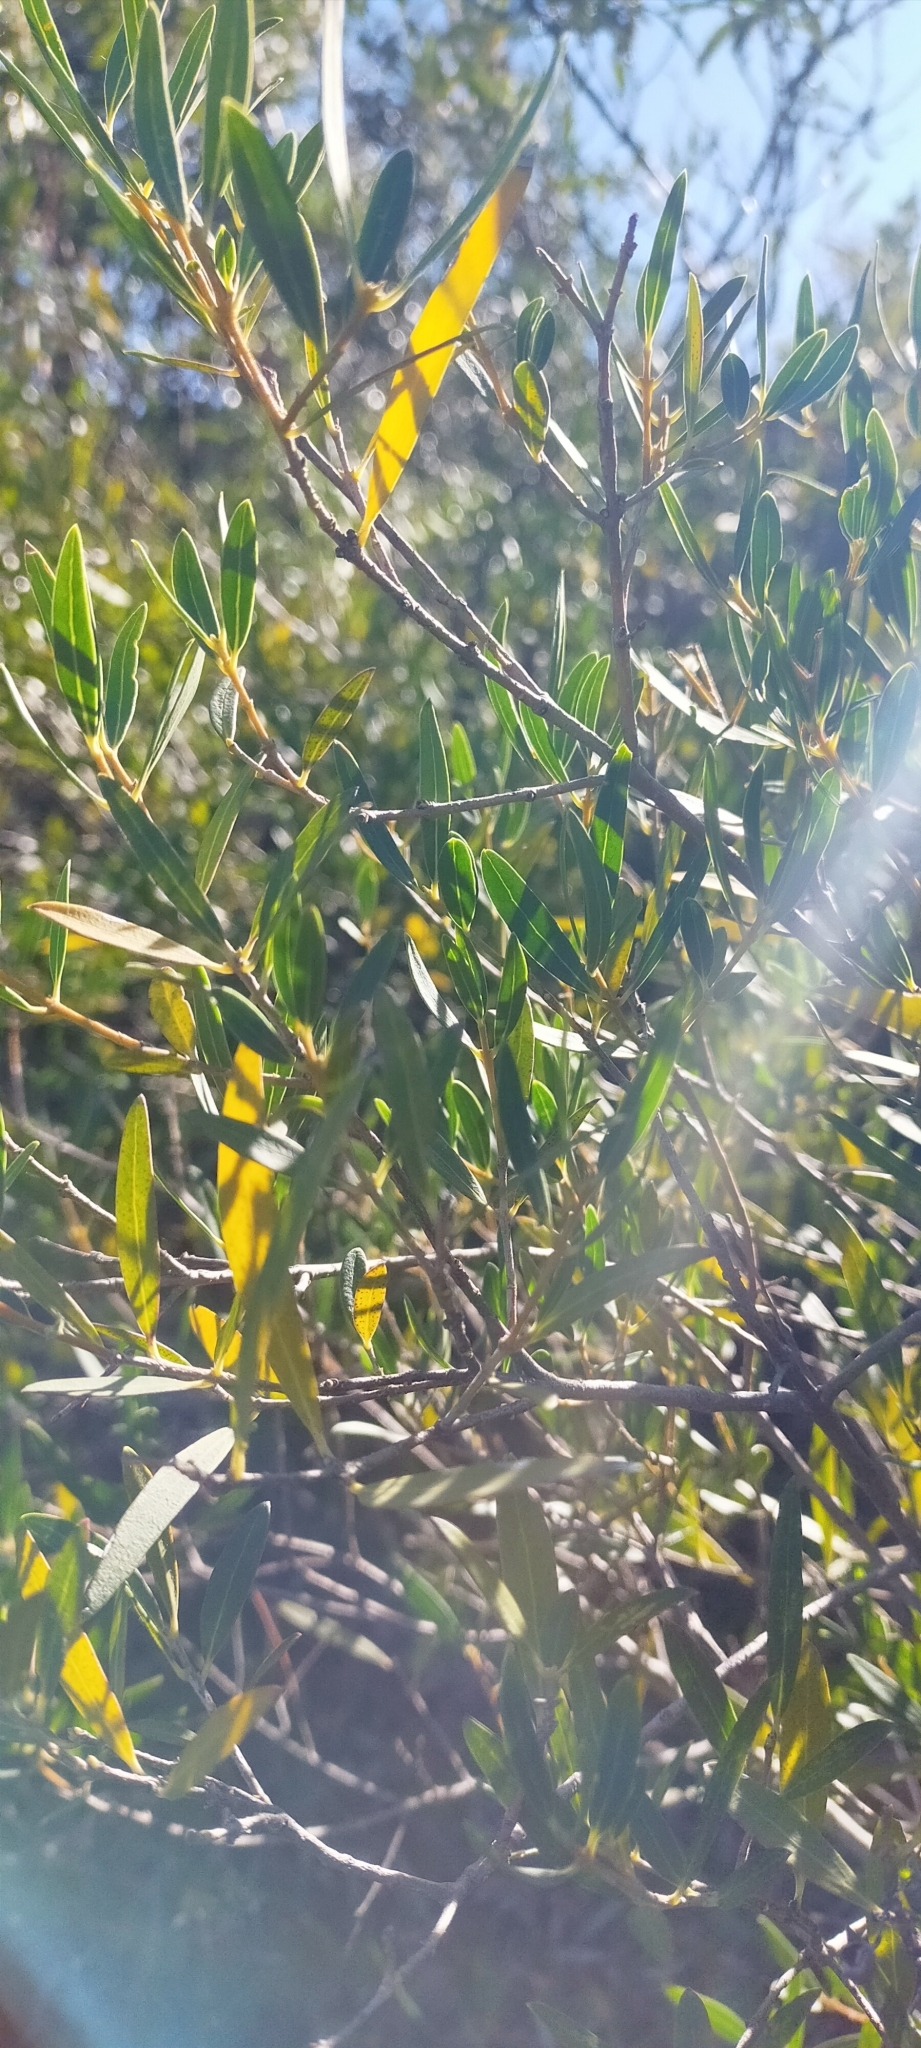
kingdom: Plantae
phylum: Tracheophyta
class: Magnoliopsida
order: Lamiales
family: Oleaceae
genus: Phillyrea
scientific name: Phillyrea angustifolia
